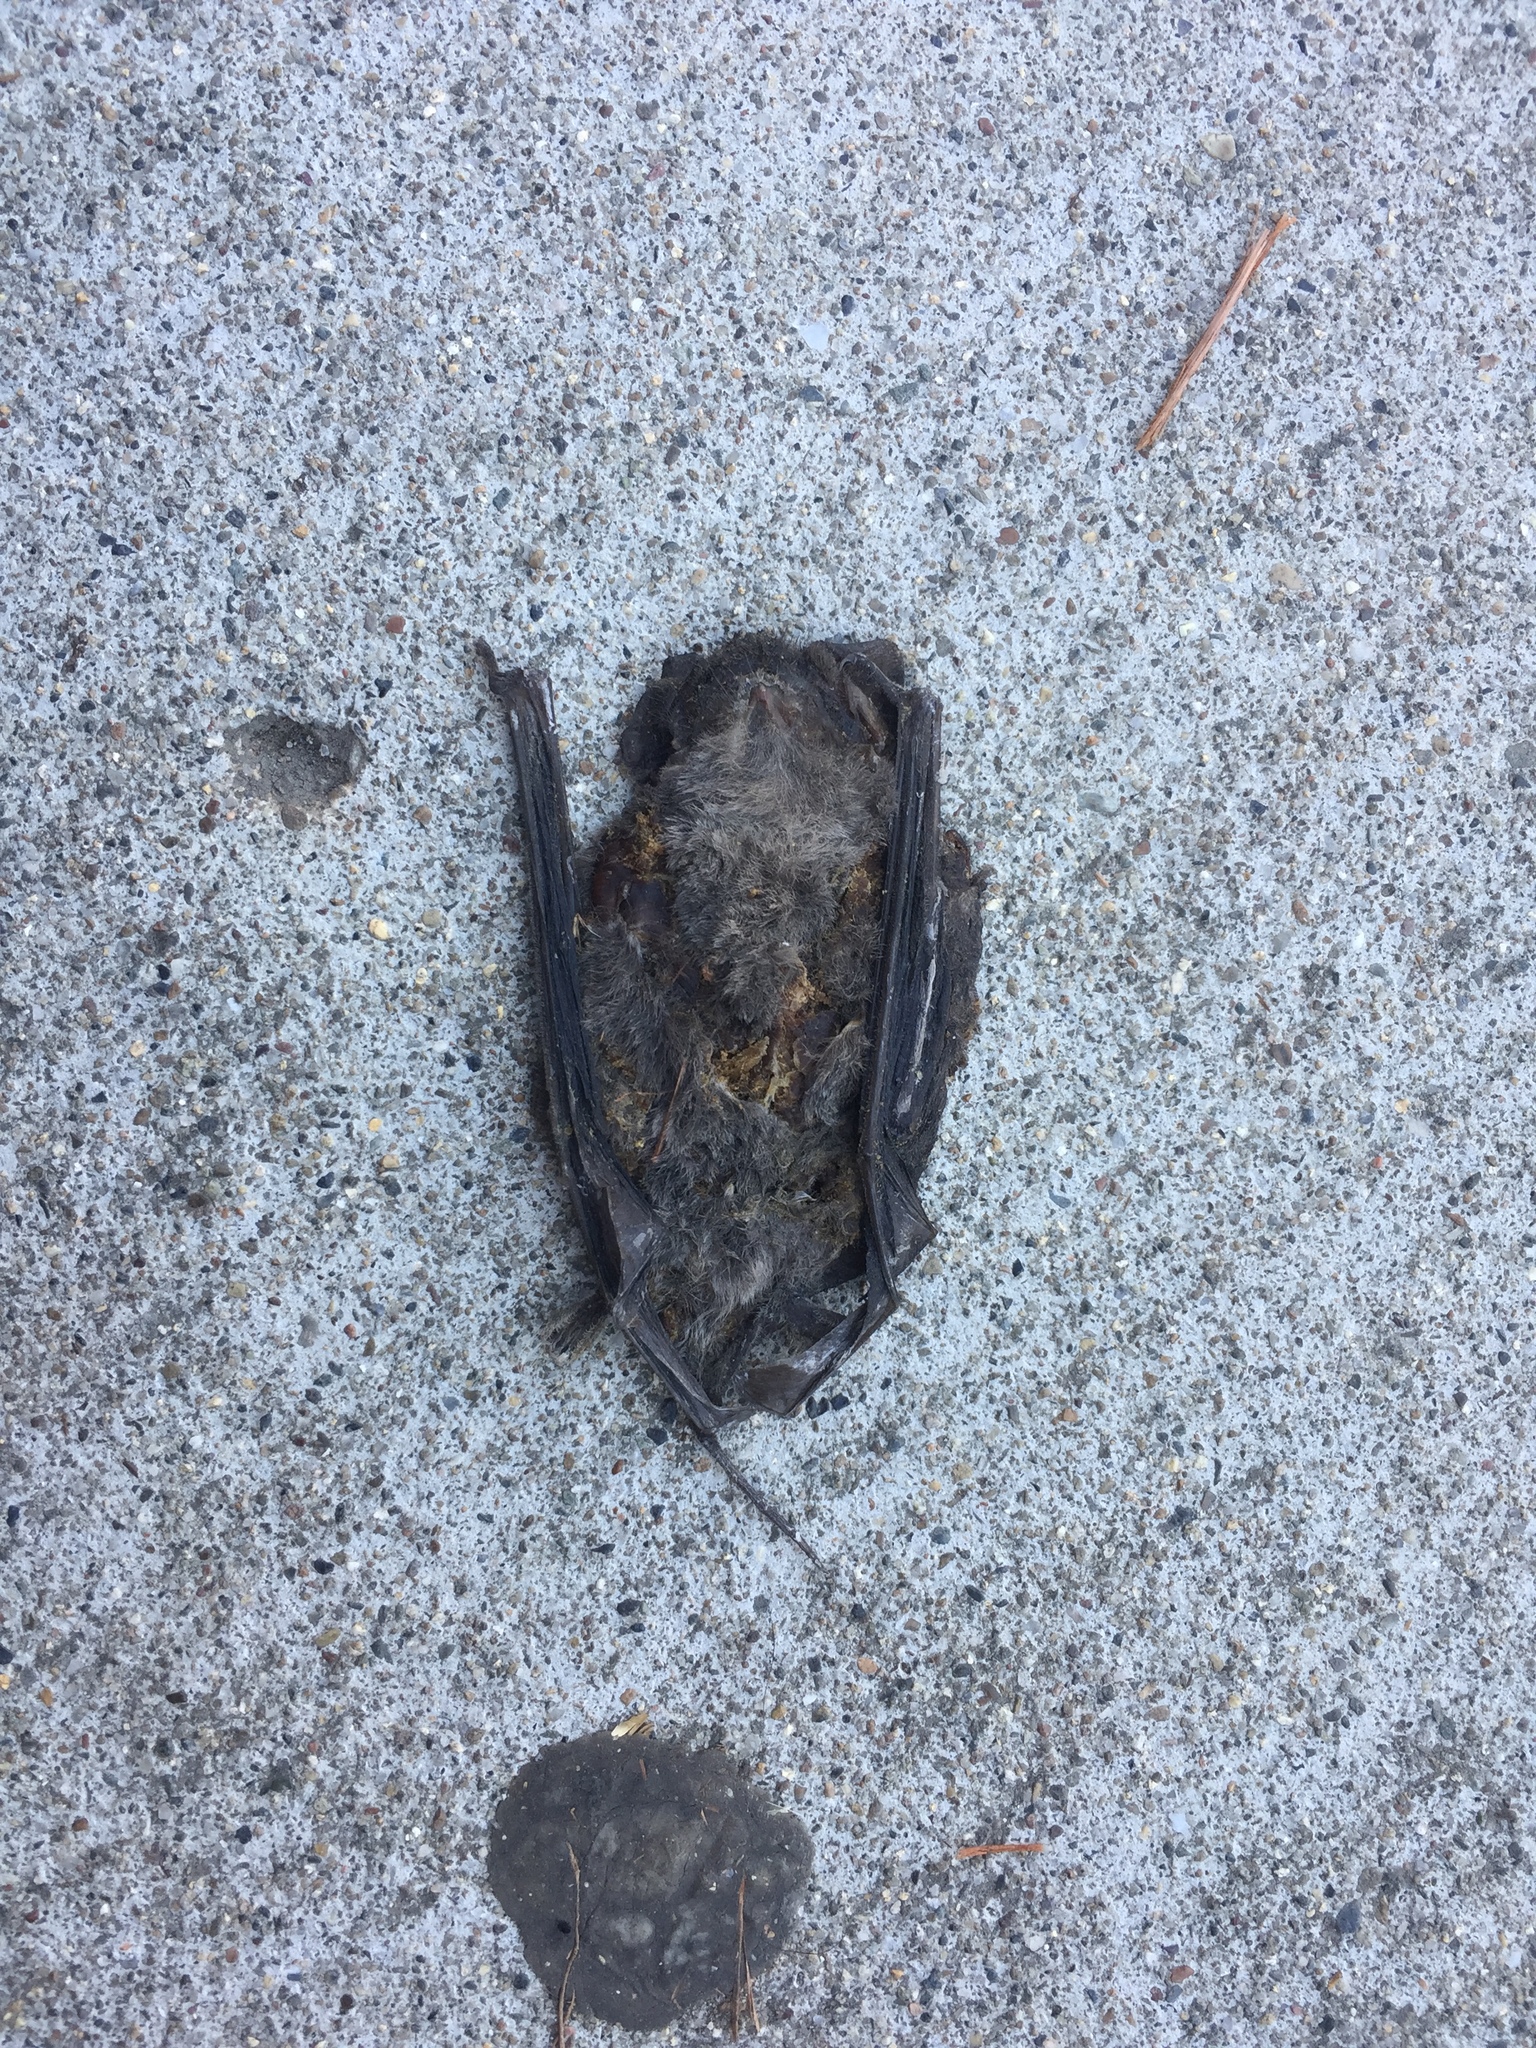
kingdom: Animalia
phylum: Chordata
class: Mammalia
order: Chiroptera
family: Molossidae
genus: Tadarida
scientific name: Tadarida brasiliensis
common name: Mexican free-tailed bat
